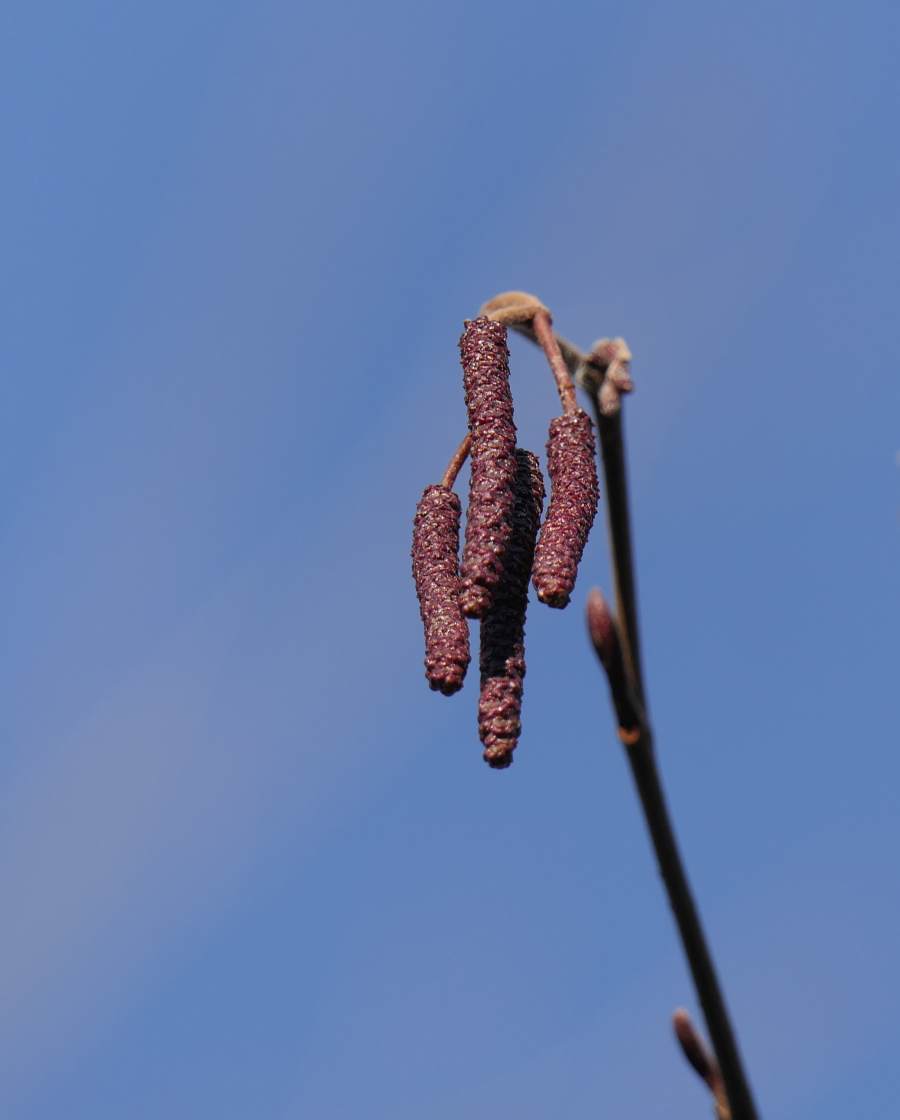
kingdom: Plantae
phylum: Tracheophyta
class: Magnoliopsida
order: Fagales
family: Betulaceae
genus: Alnus
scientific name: Alnus incana
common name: Grey alder
